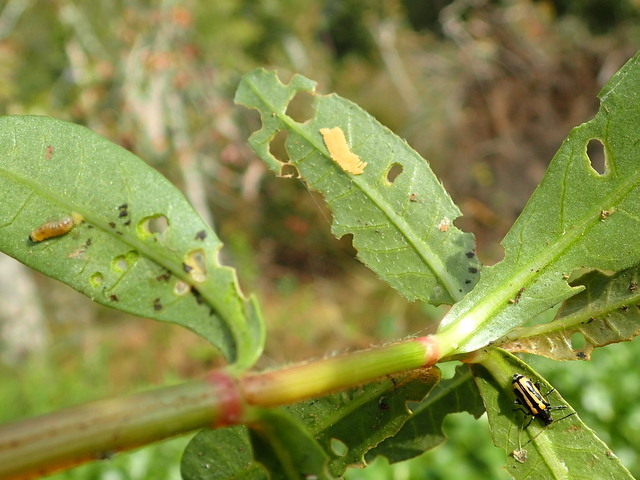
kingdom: Animalia
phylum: Arthropoda
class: Insecta
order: Coleoptera
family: Chrysomelidae
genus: Agasicles
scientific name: Agasicles hygrophila
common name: Alligatorweed flea beetle
